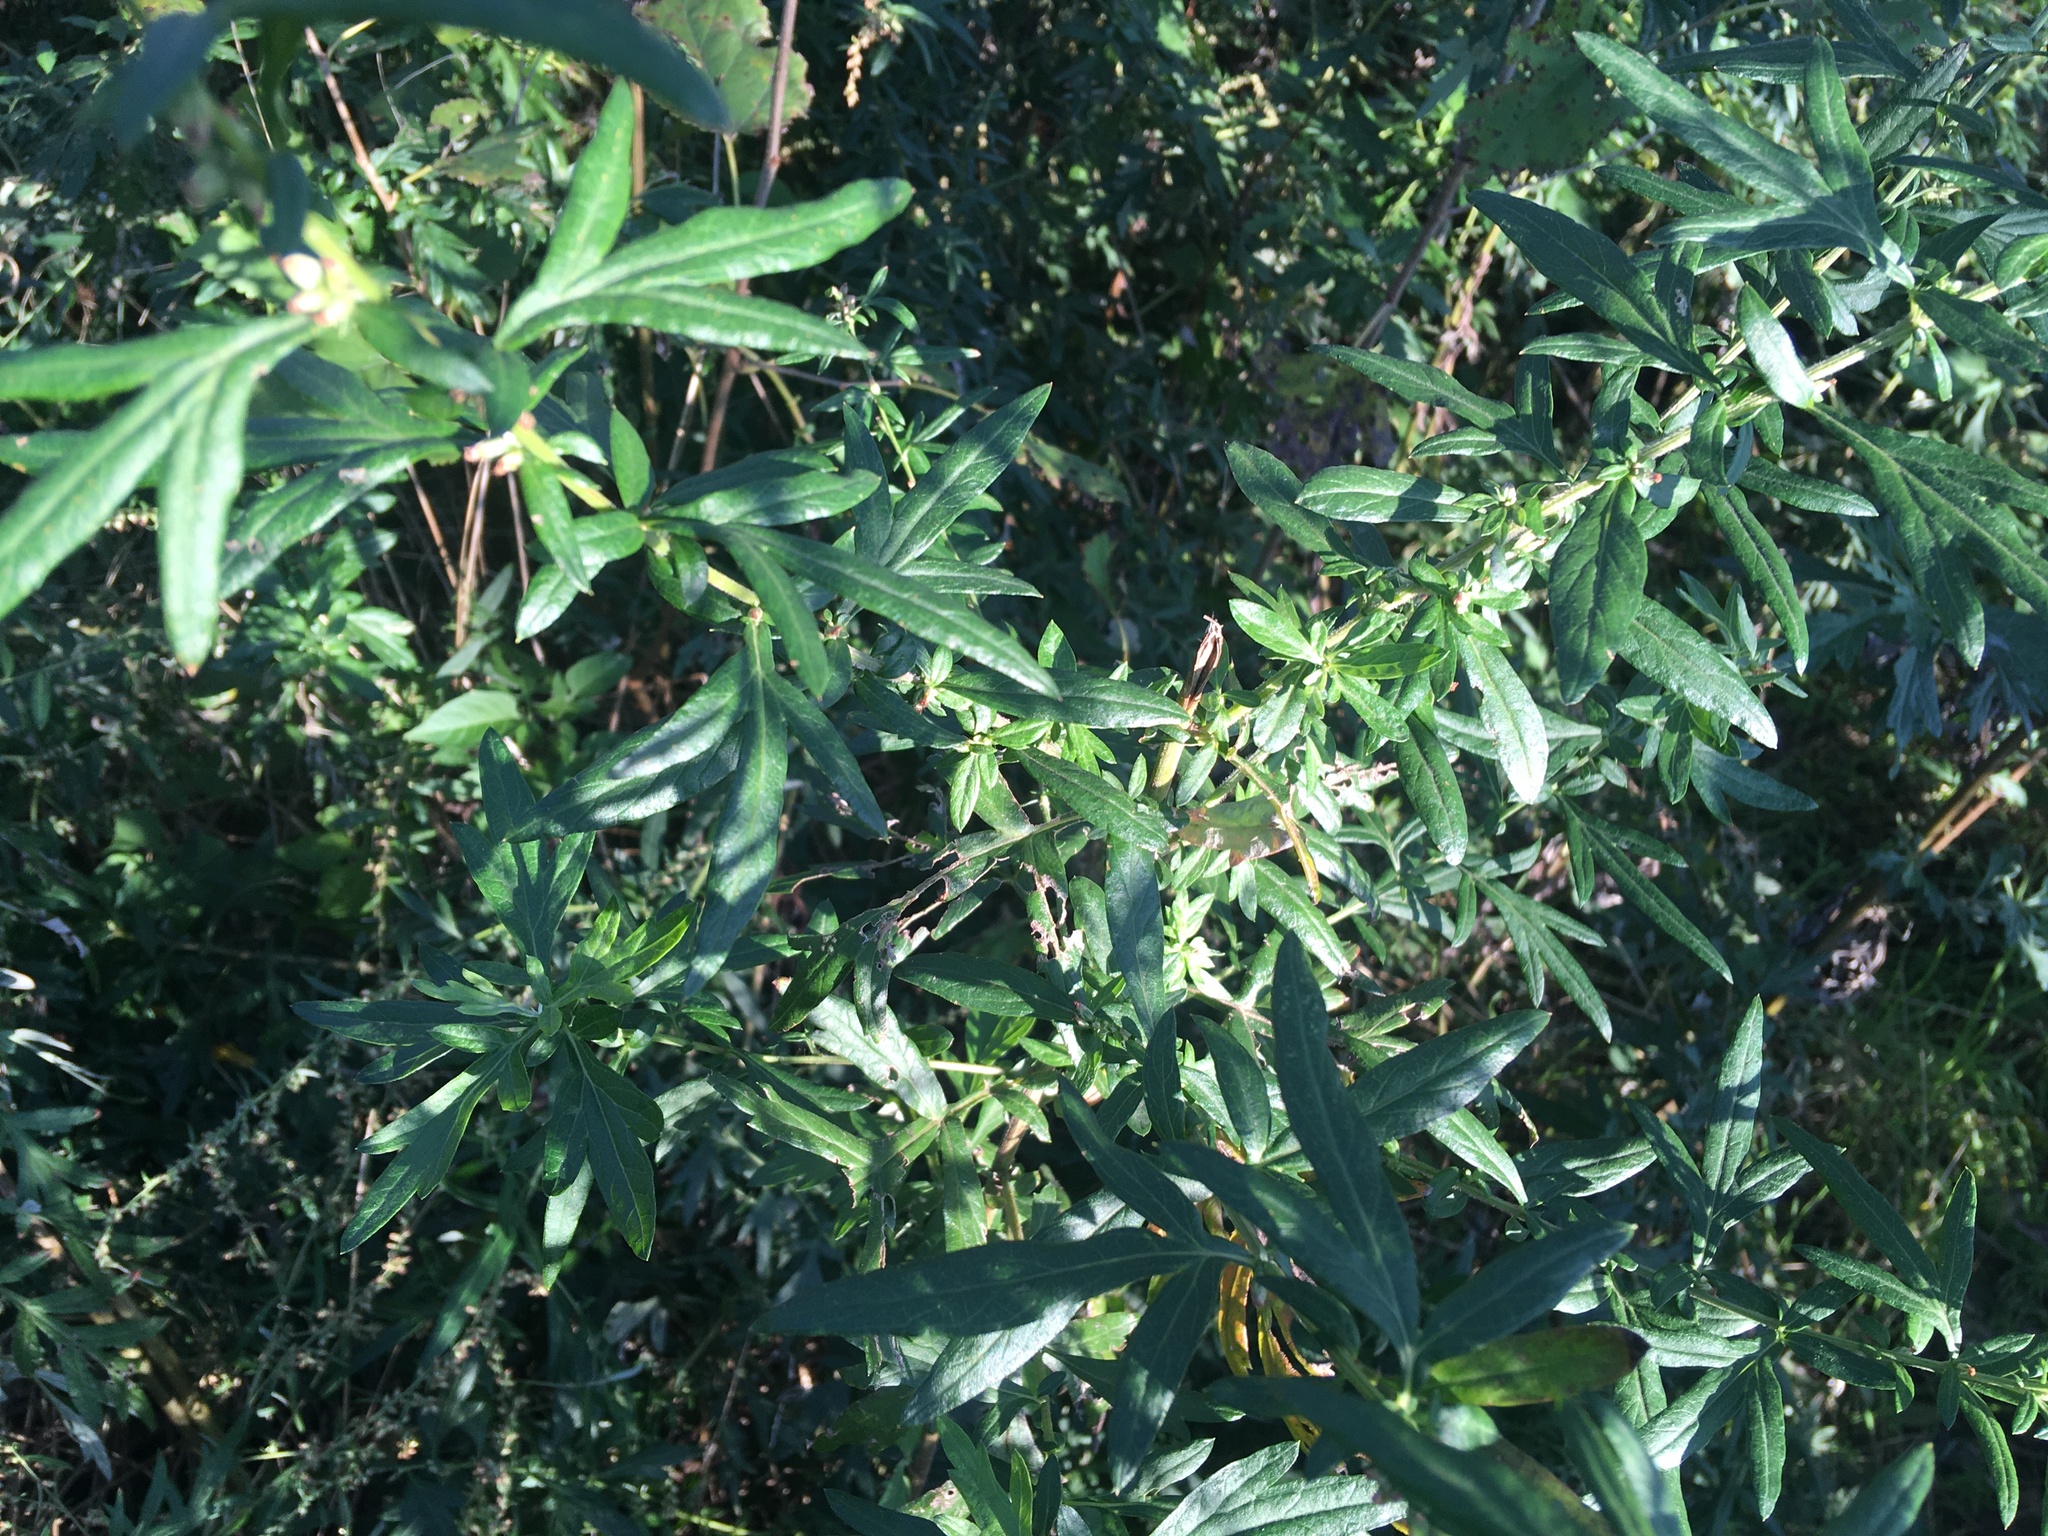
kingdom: Plantae
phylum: Tracheophyta
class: Magnoliopsida
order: Asterales
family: Asteraceae
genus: Artemisia
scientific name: Artemisia vulgaris
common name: Mugwort
